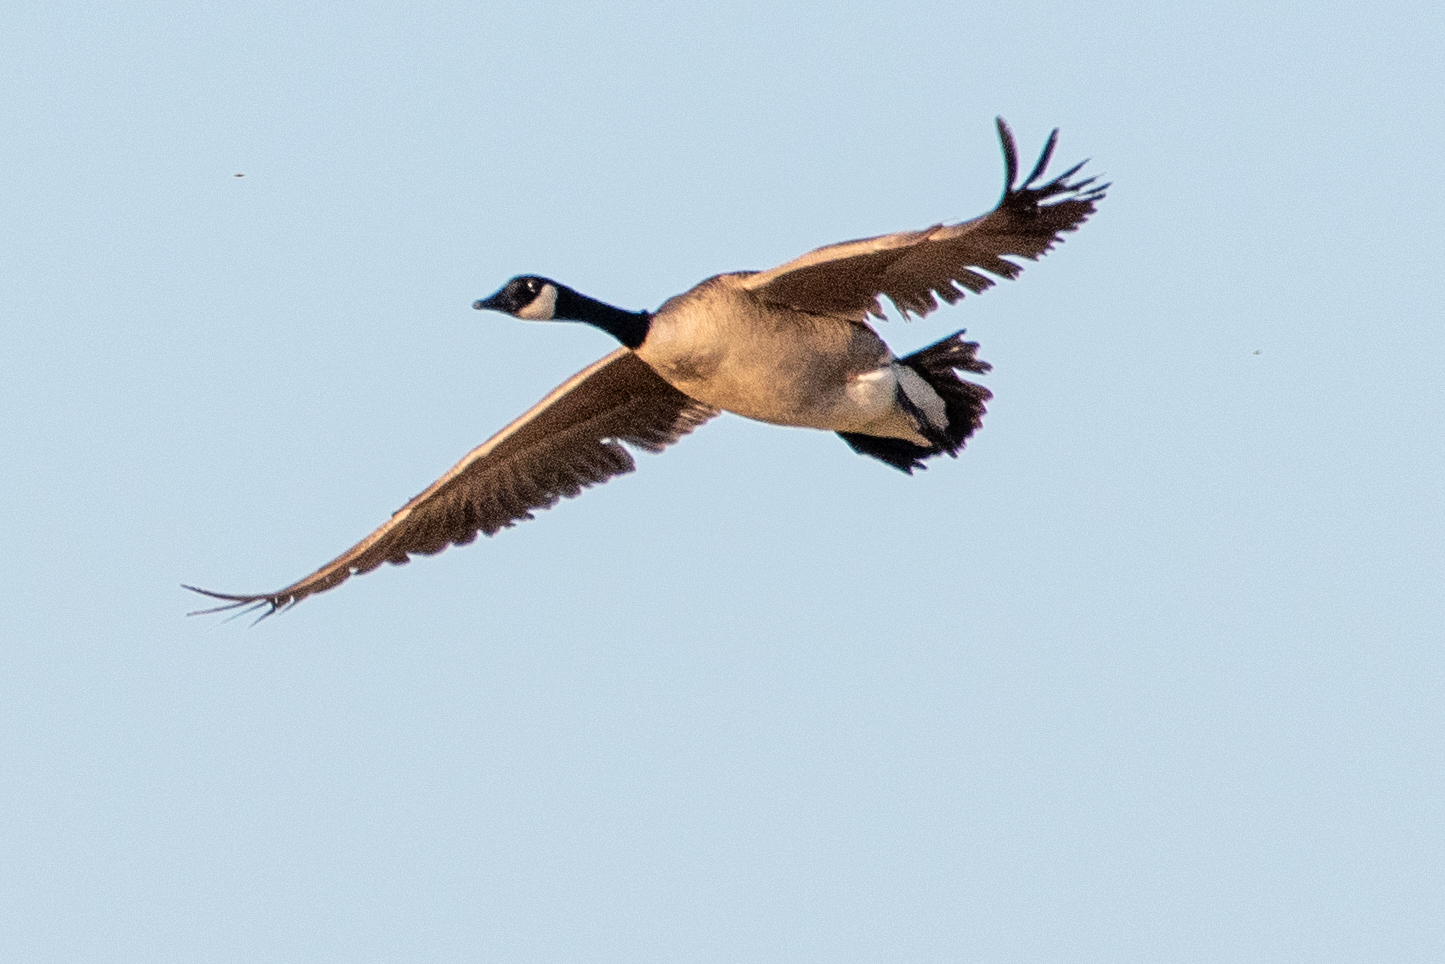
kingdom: Animalia
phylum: Chordata
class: Aves
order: Anseriformes
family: Anatidae
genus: Branta
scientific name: Branta canadensis
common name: Canada goose
